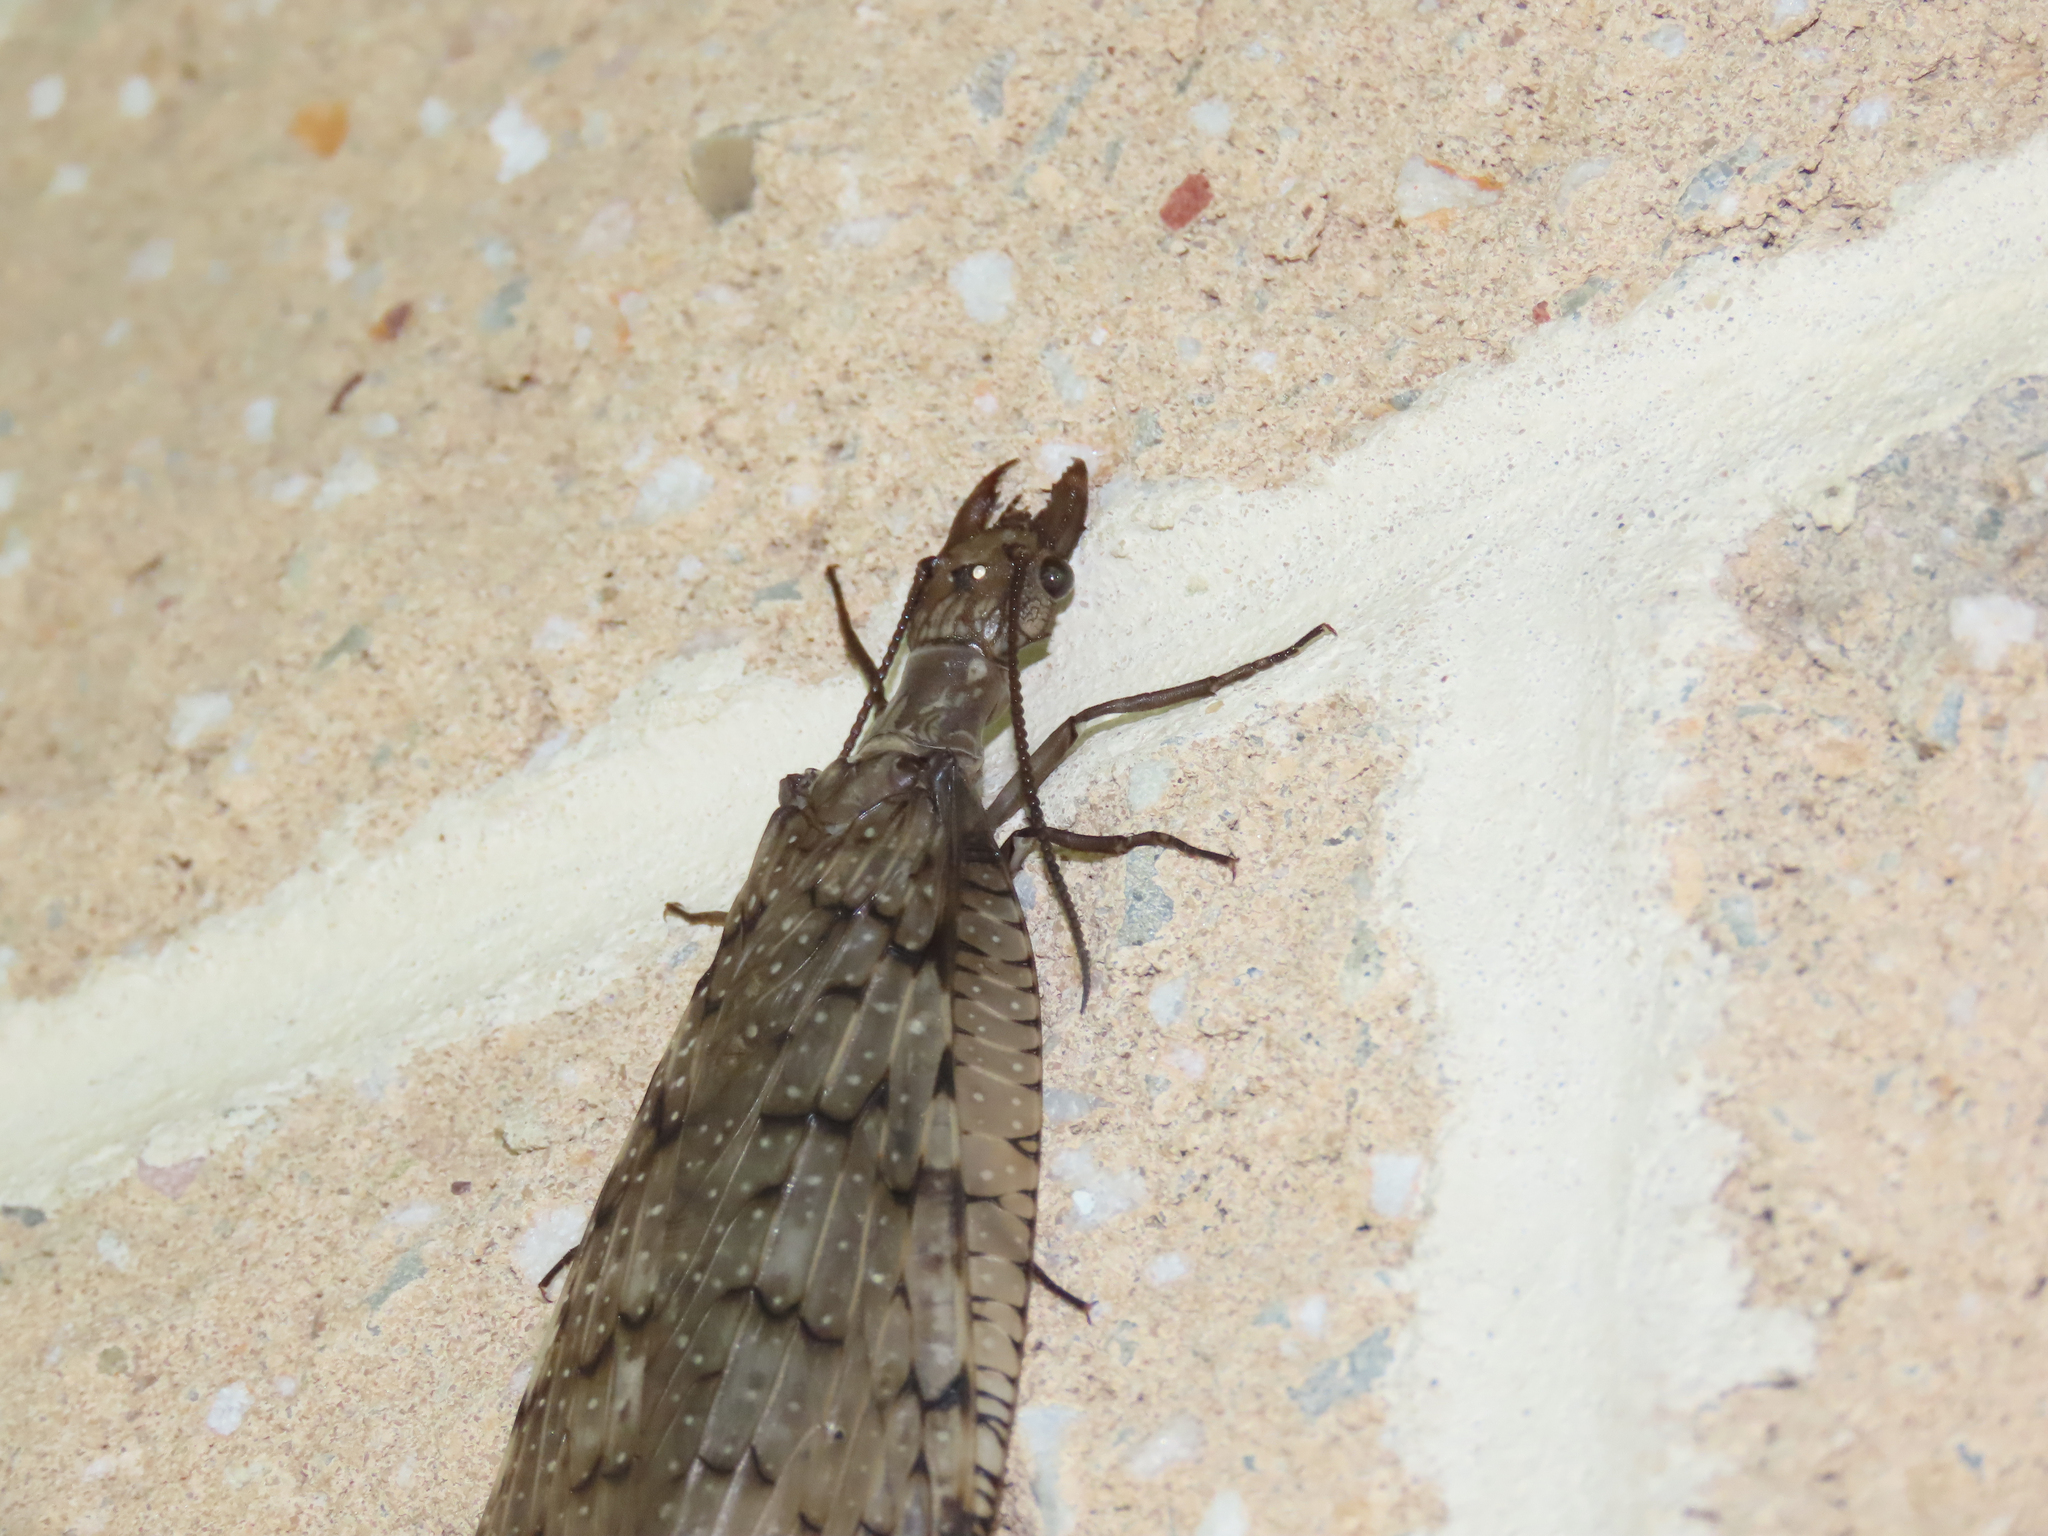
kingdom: Animalia
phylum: Arthropoda
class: Insecta
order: Megaloptera
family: Corydalidae
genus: Corydalus
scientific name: Corydalus cornutus
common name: Dobsonfly
